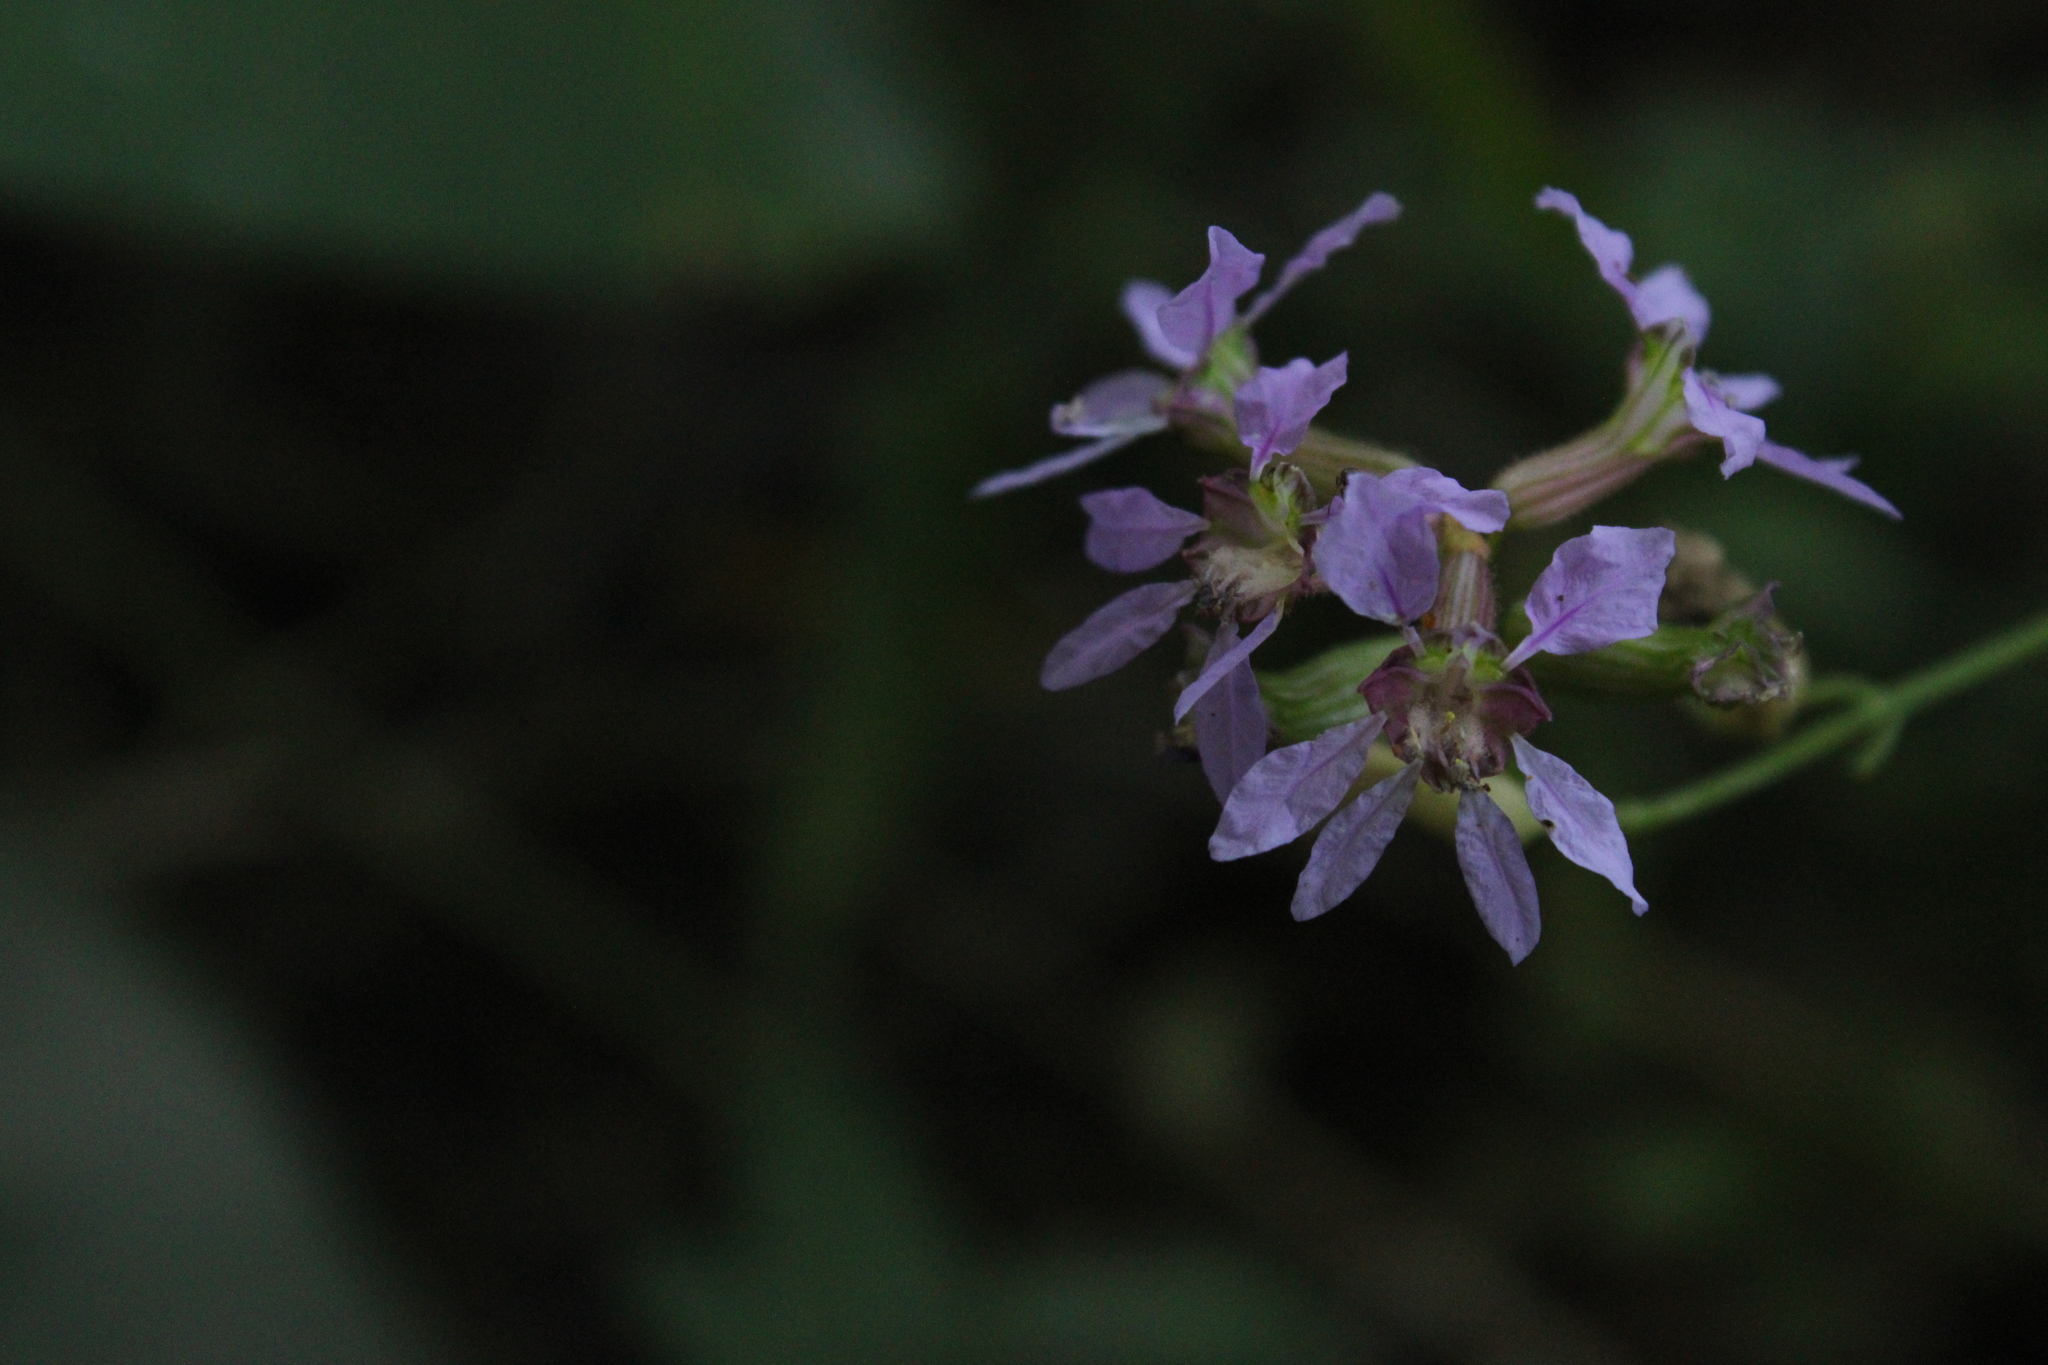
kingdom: Plantae
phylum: Tracheophyta
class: Magnoliopsida
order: Myrtales
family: Lythraceae
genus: Cuphea
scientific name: Cuphea fruticosa
